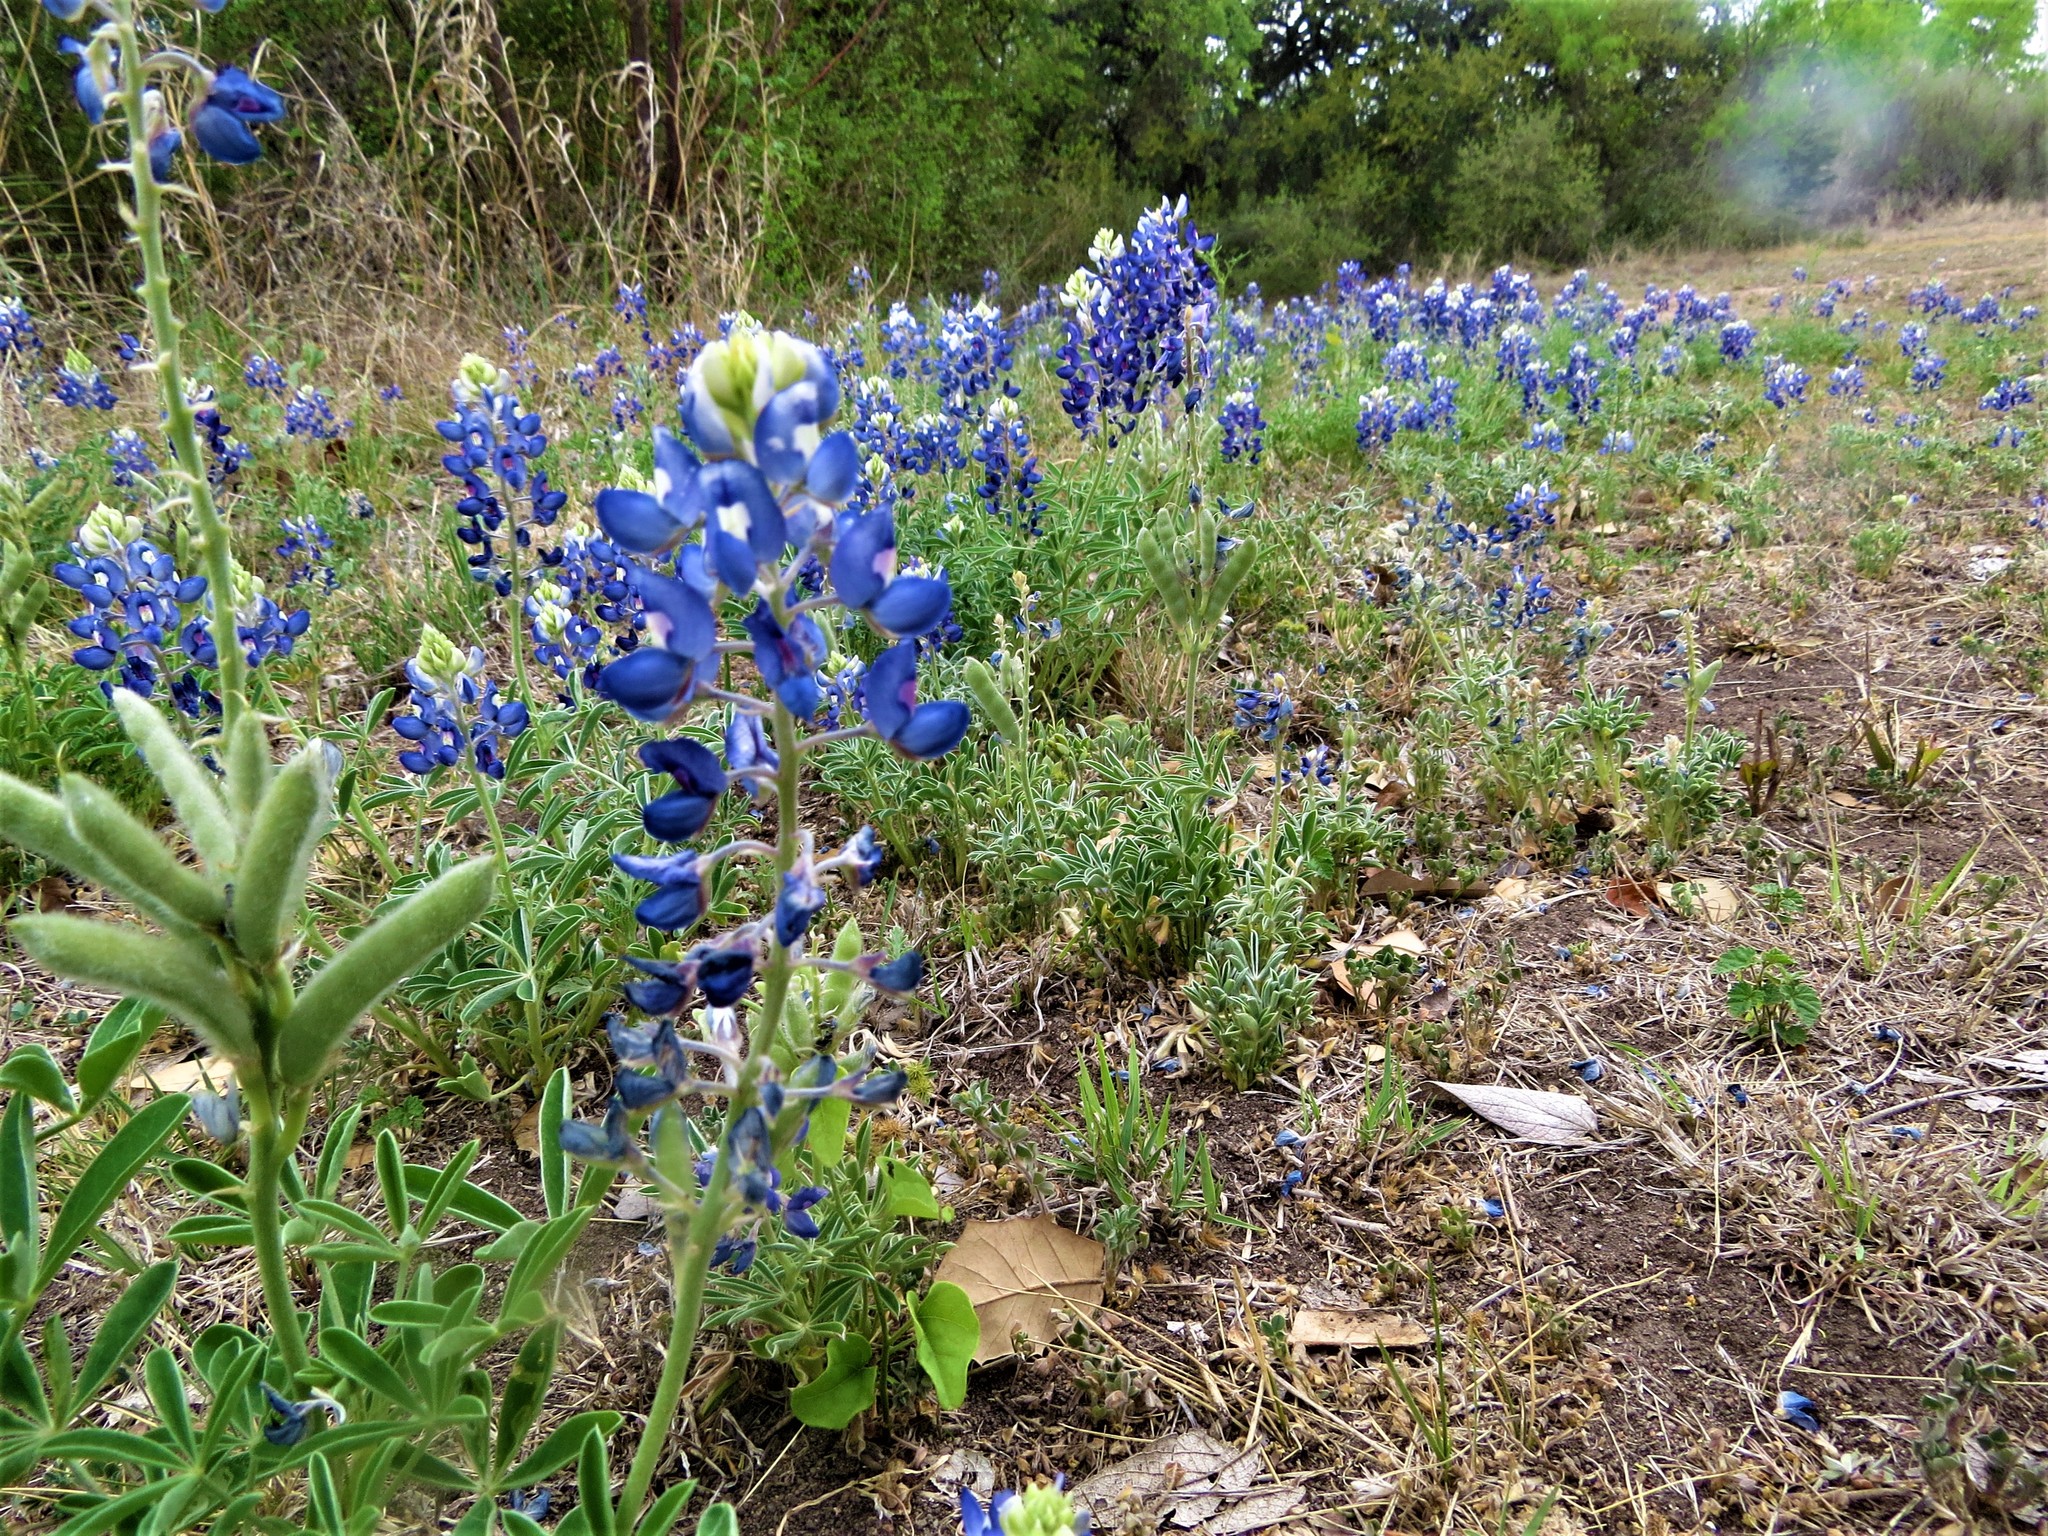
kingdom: Plantae
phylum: Tracheophyta
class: Magnoliopsida
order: Fabales
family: Fabaceae
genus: Lupinus
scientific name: Lupinus texensis
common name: Texas bluebonnet
